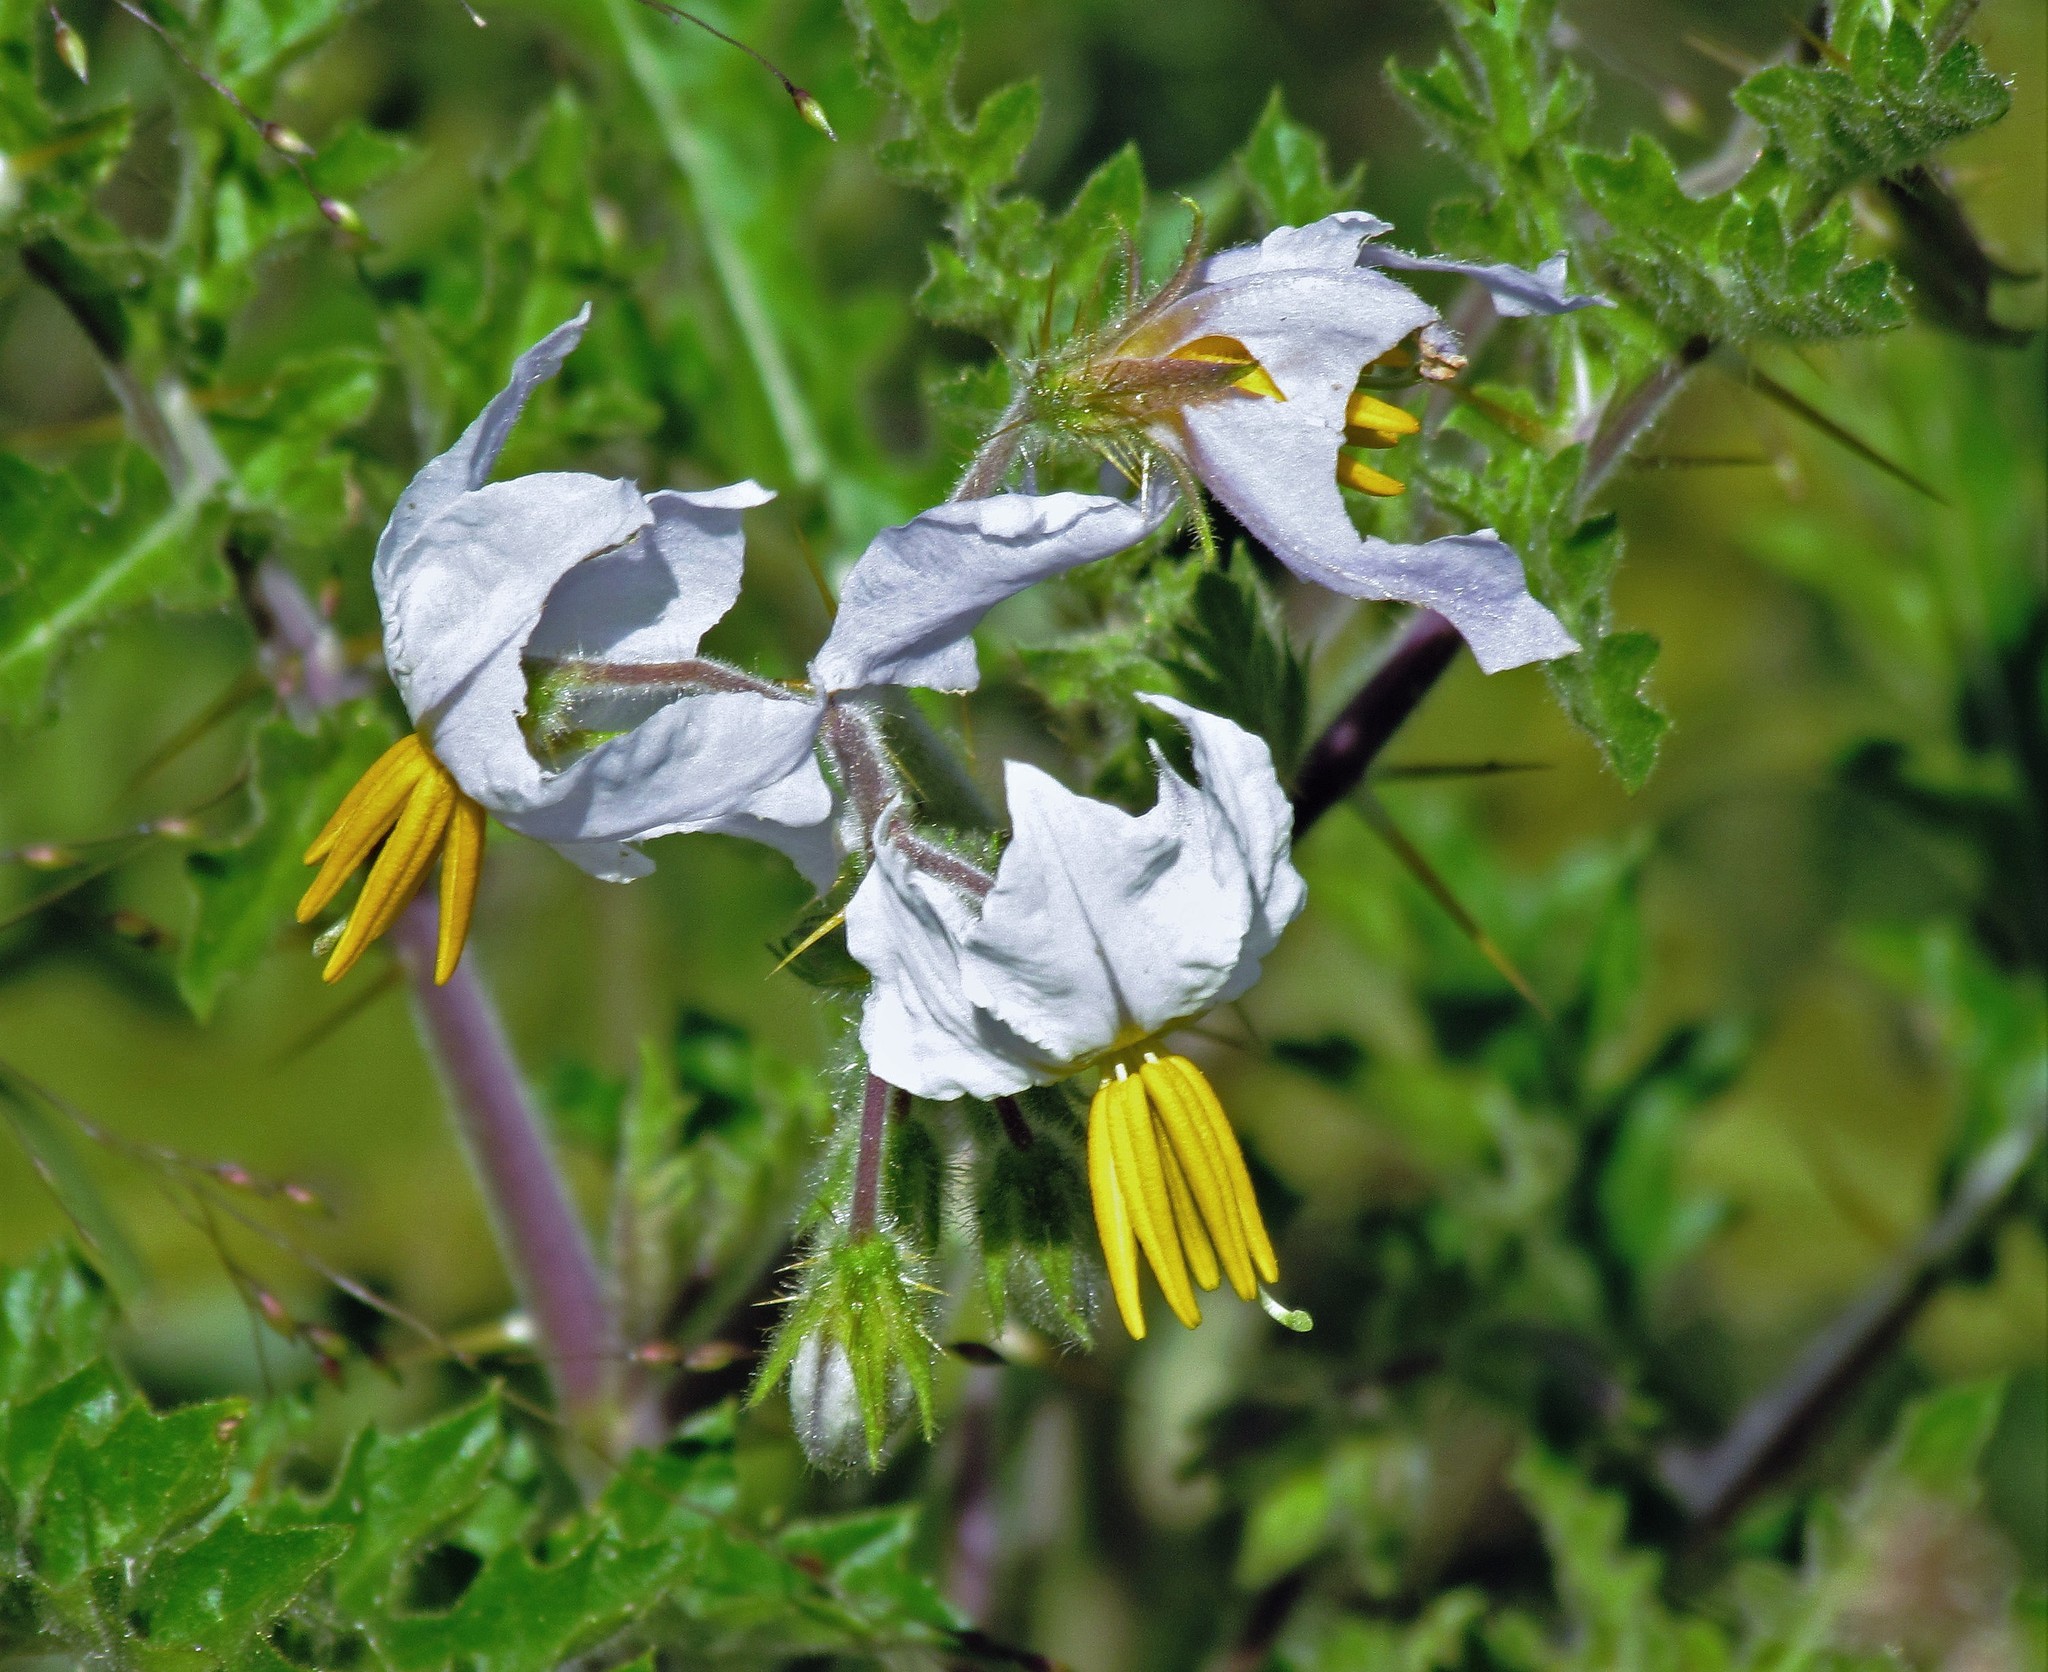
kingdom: Plantae
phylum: Tracheophyta
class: Magnoliopsida
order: Solanales
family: Solanaceae
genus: Solanum
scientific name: Solanum sisymbriifolium
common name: Red buffalo-bur
